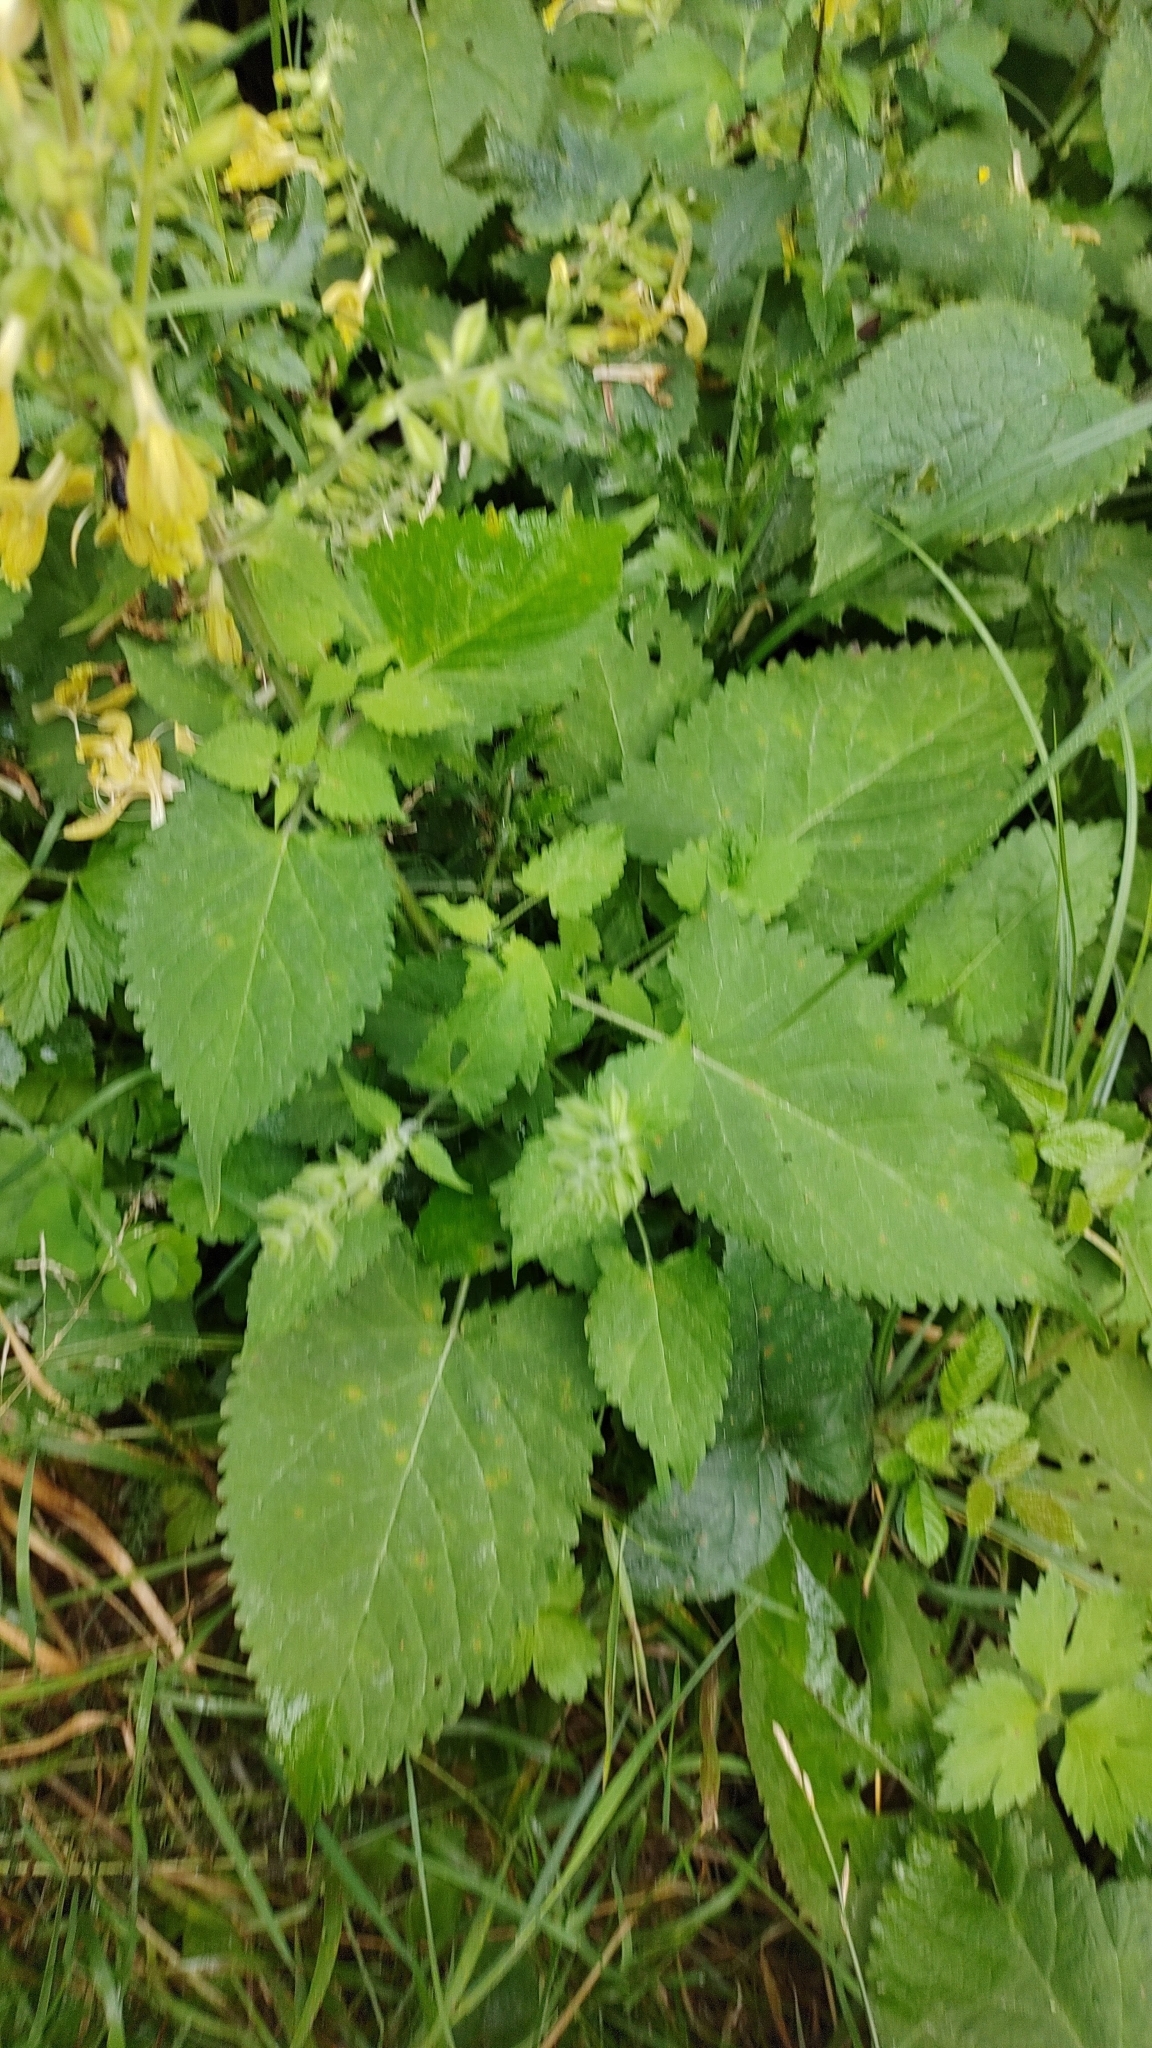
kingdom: Plantae
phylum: Tracheophyta
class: Magnoliopsida
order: Lamiales
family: Lamiaceae
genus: Salvia
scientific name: Salvia glutinosa
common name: Sticky clary
